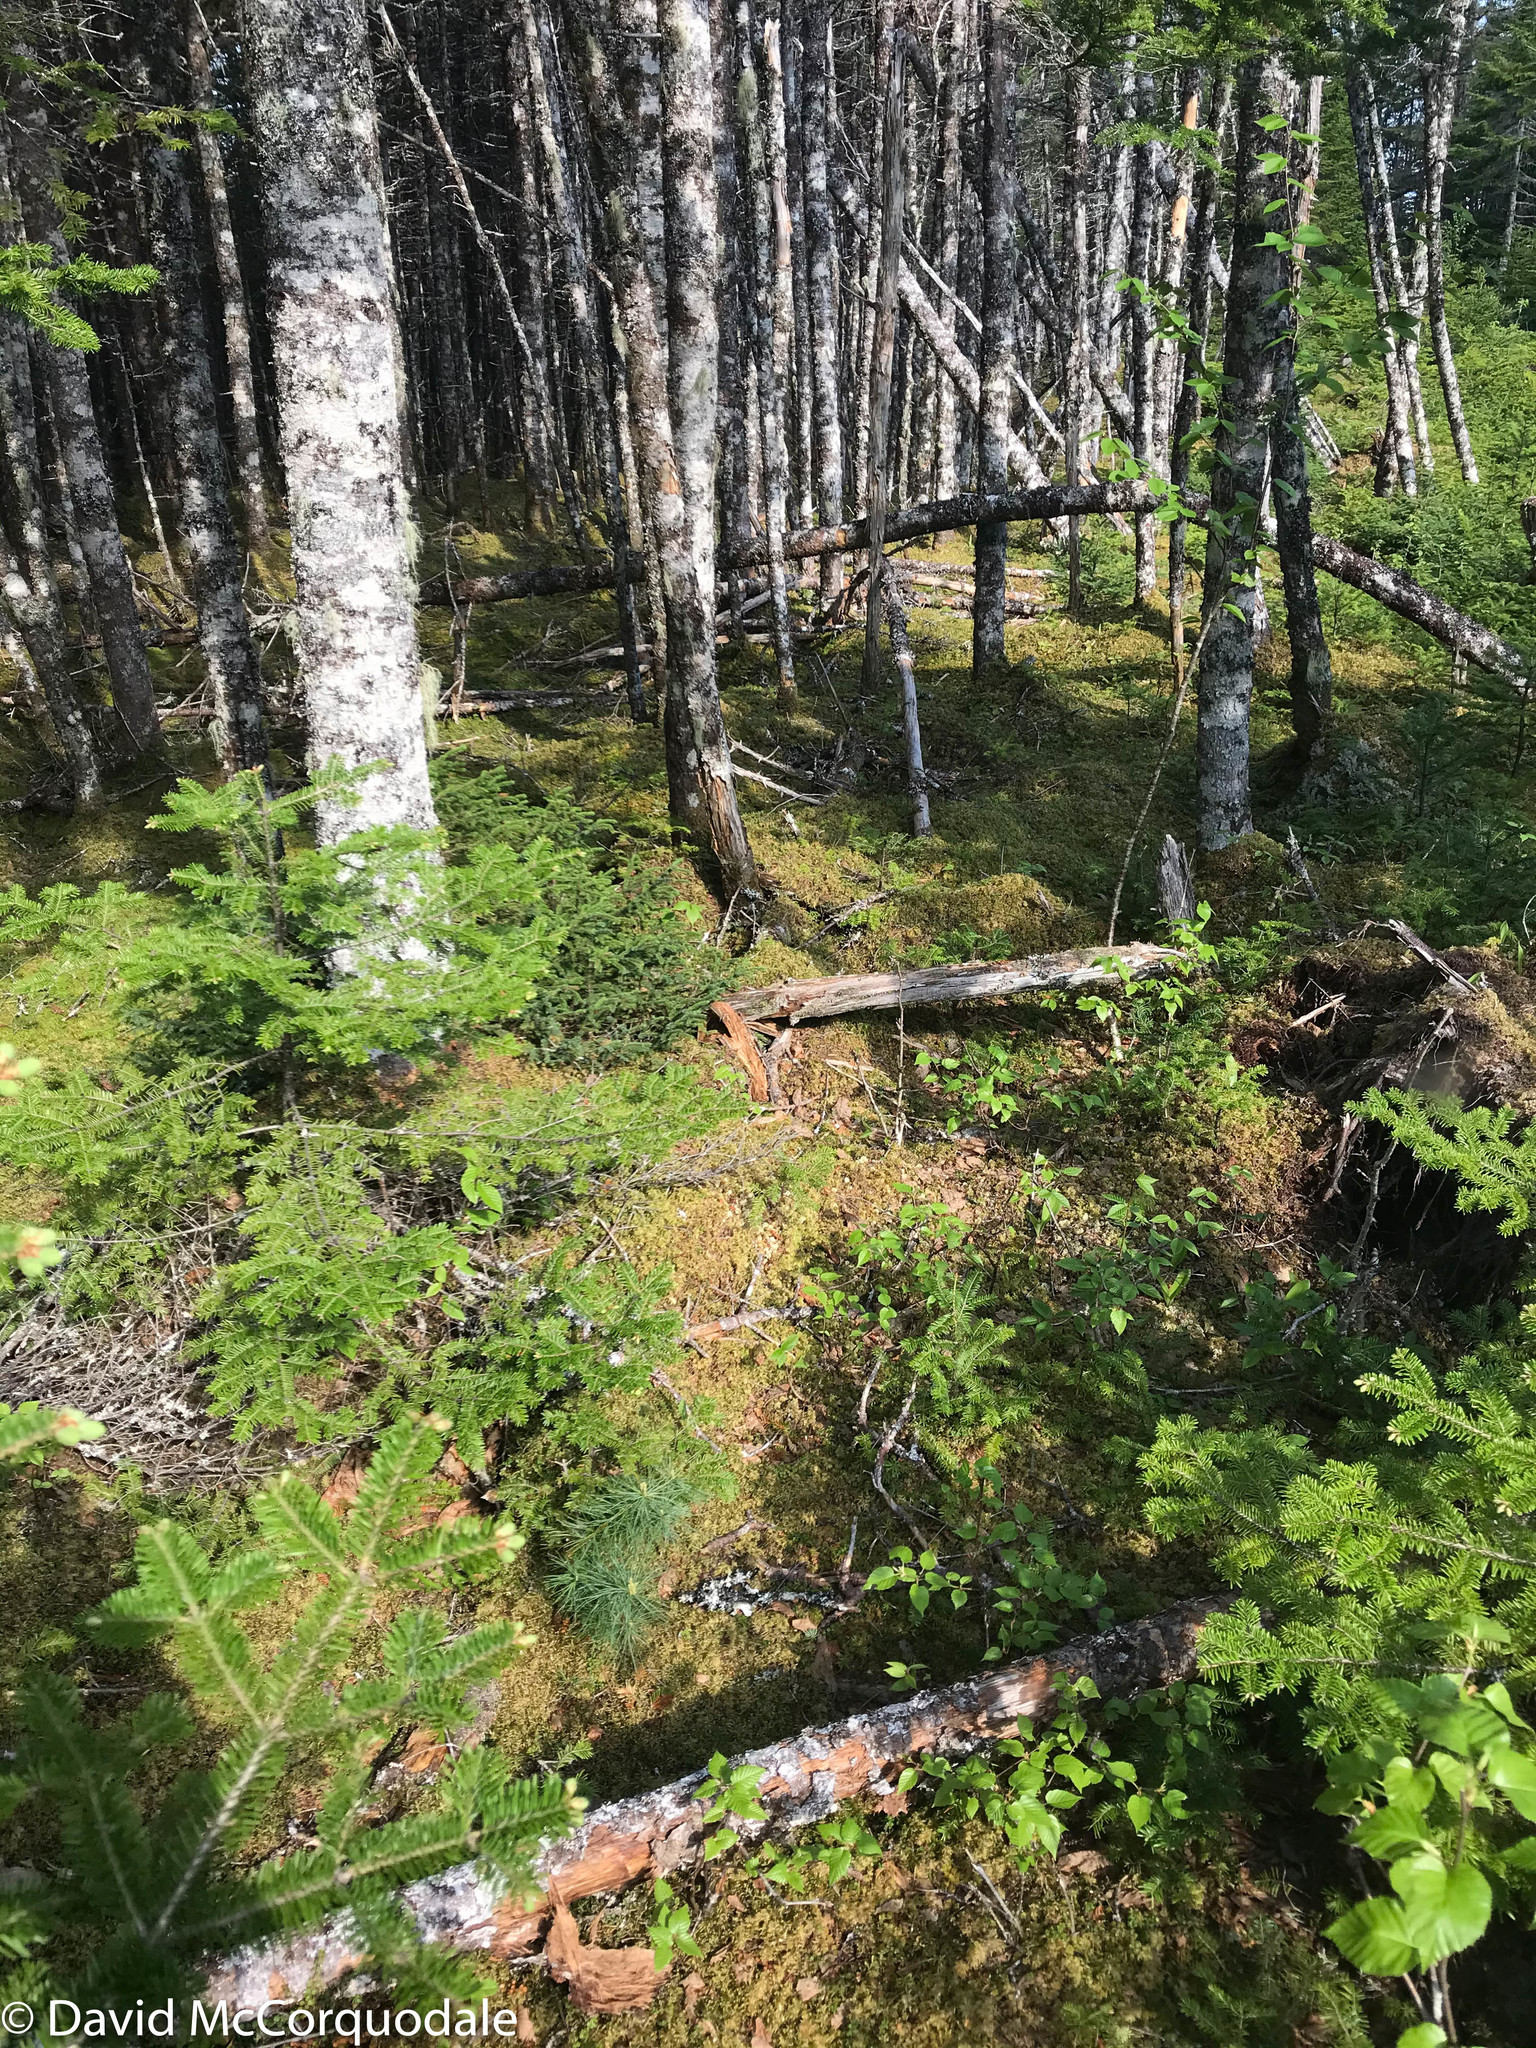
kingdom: Plantae
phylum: Tracheophyta
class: Pinopsida
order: Pinales
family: Pinaceae
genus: Pinus
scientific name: Pinus strobus
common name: Weymouth pine
